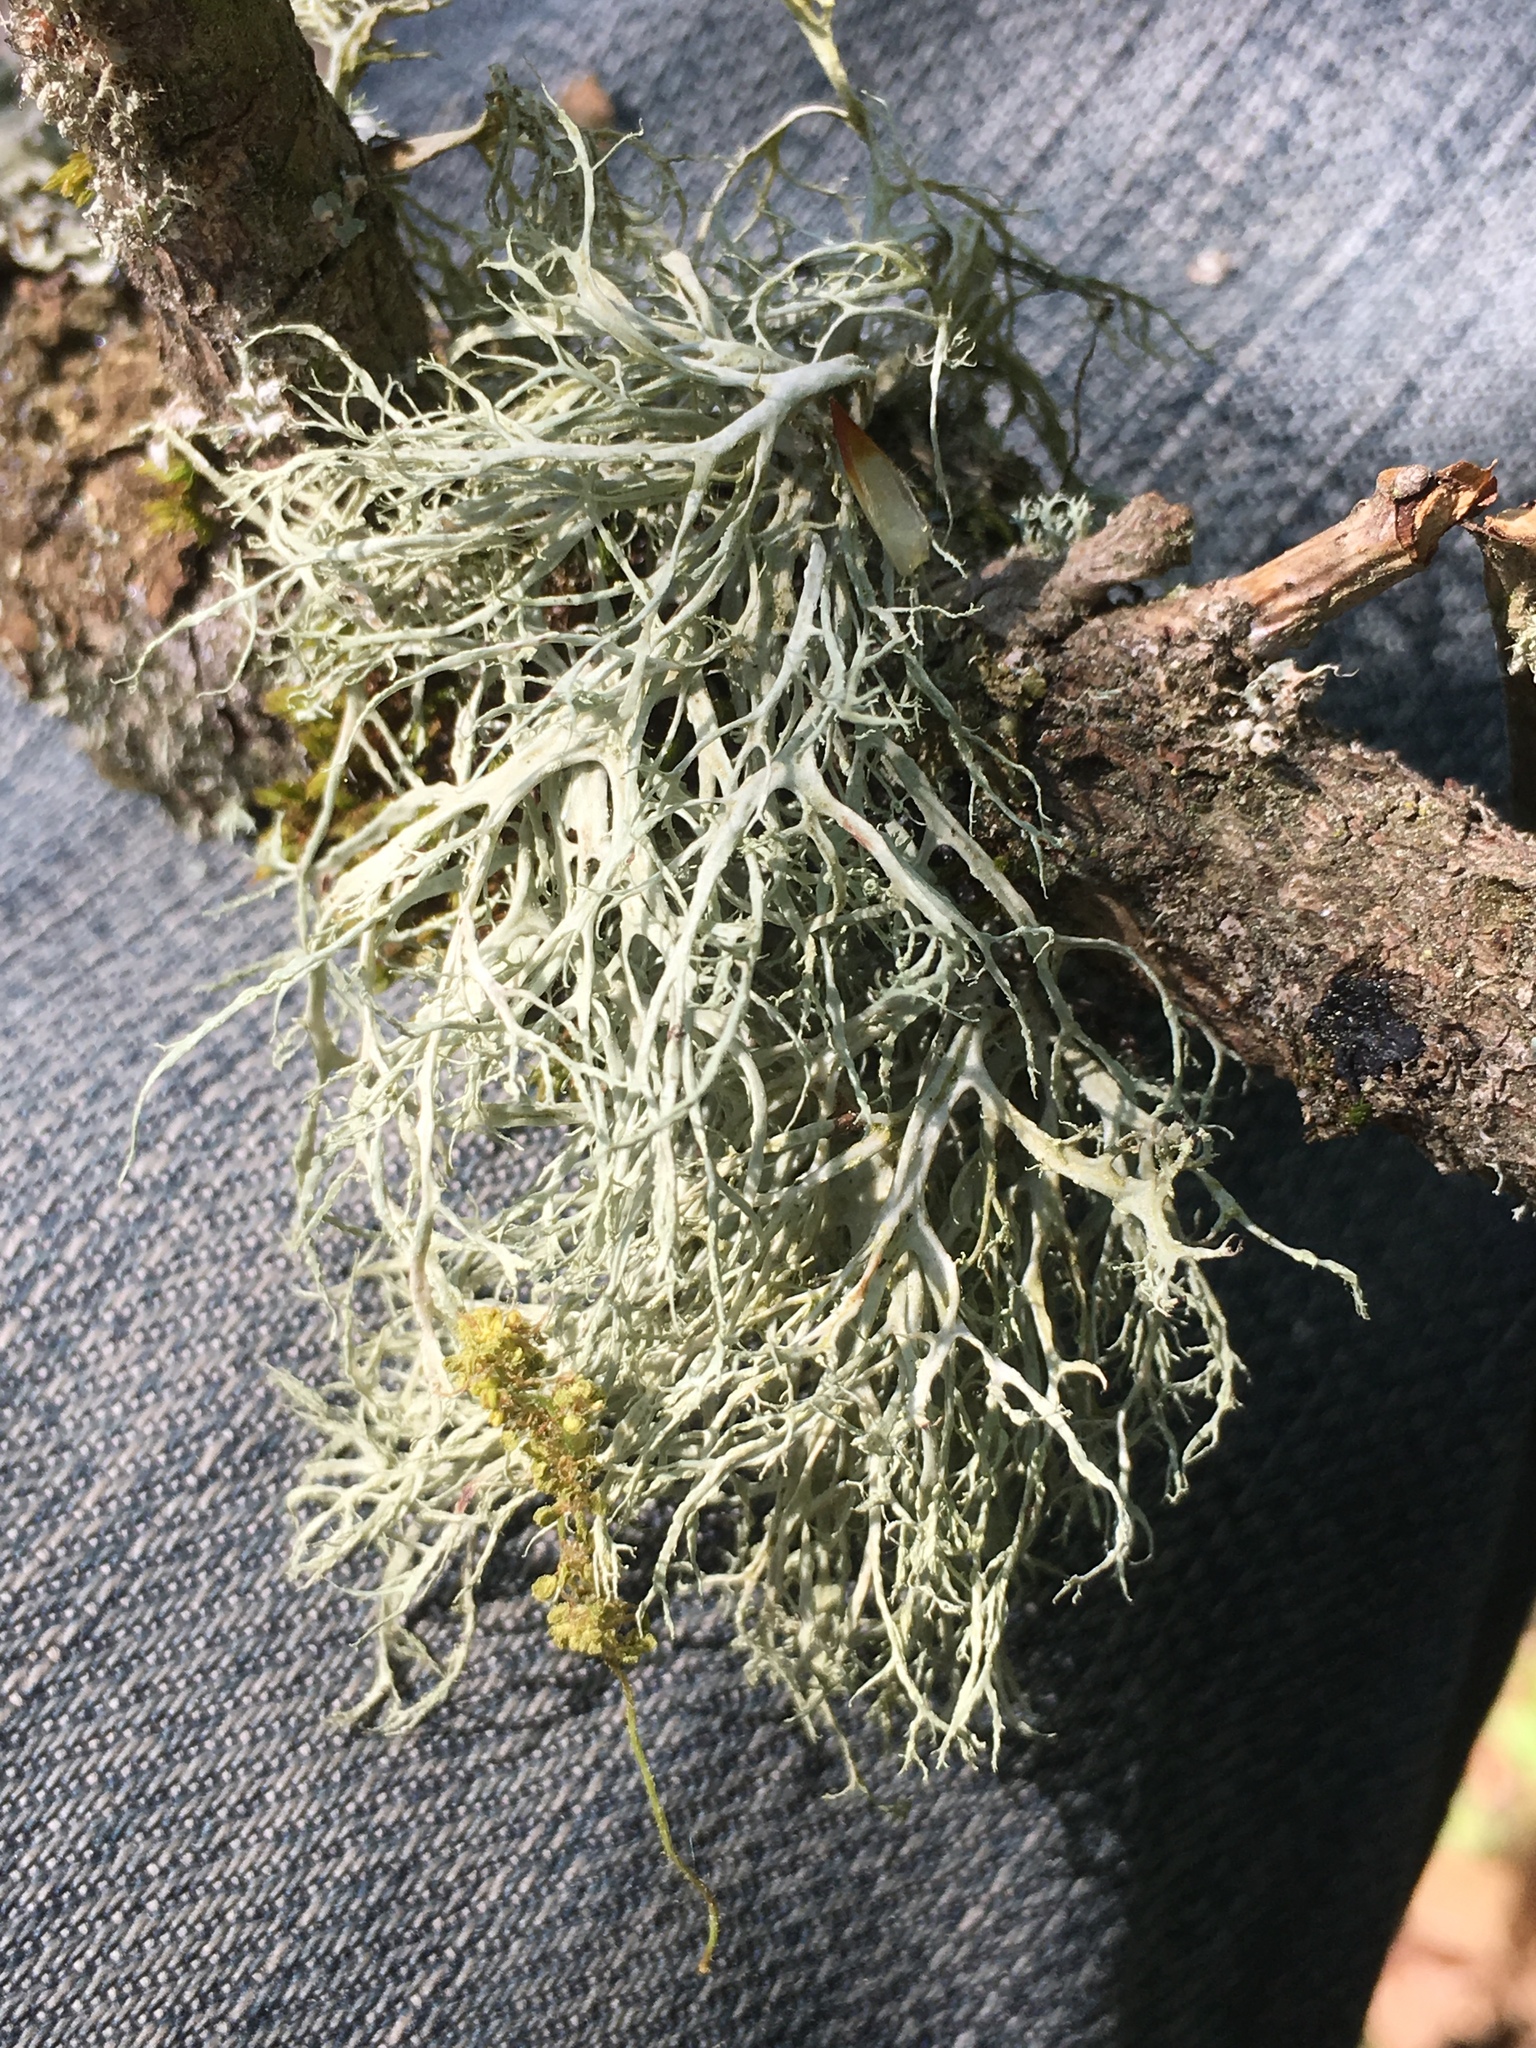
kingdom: Fungi
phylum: Ascomycota
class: Lecanoromycetes
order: Lecanorales
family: Ramalinaceae
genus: Ramalina
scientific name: Ramalina farinacea
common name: Farinose cartilage lichen
